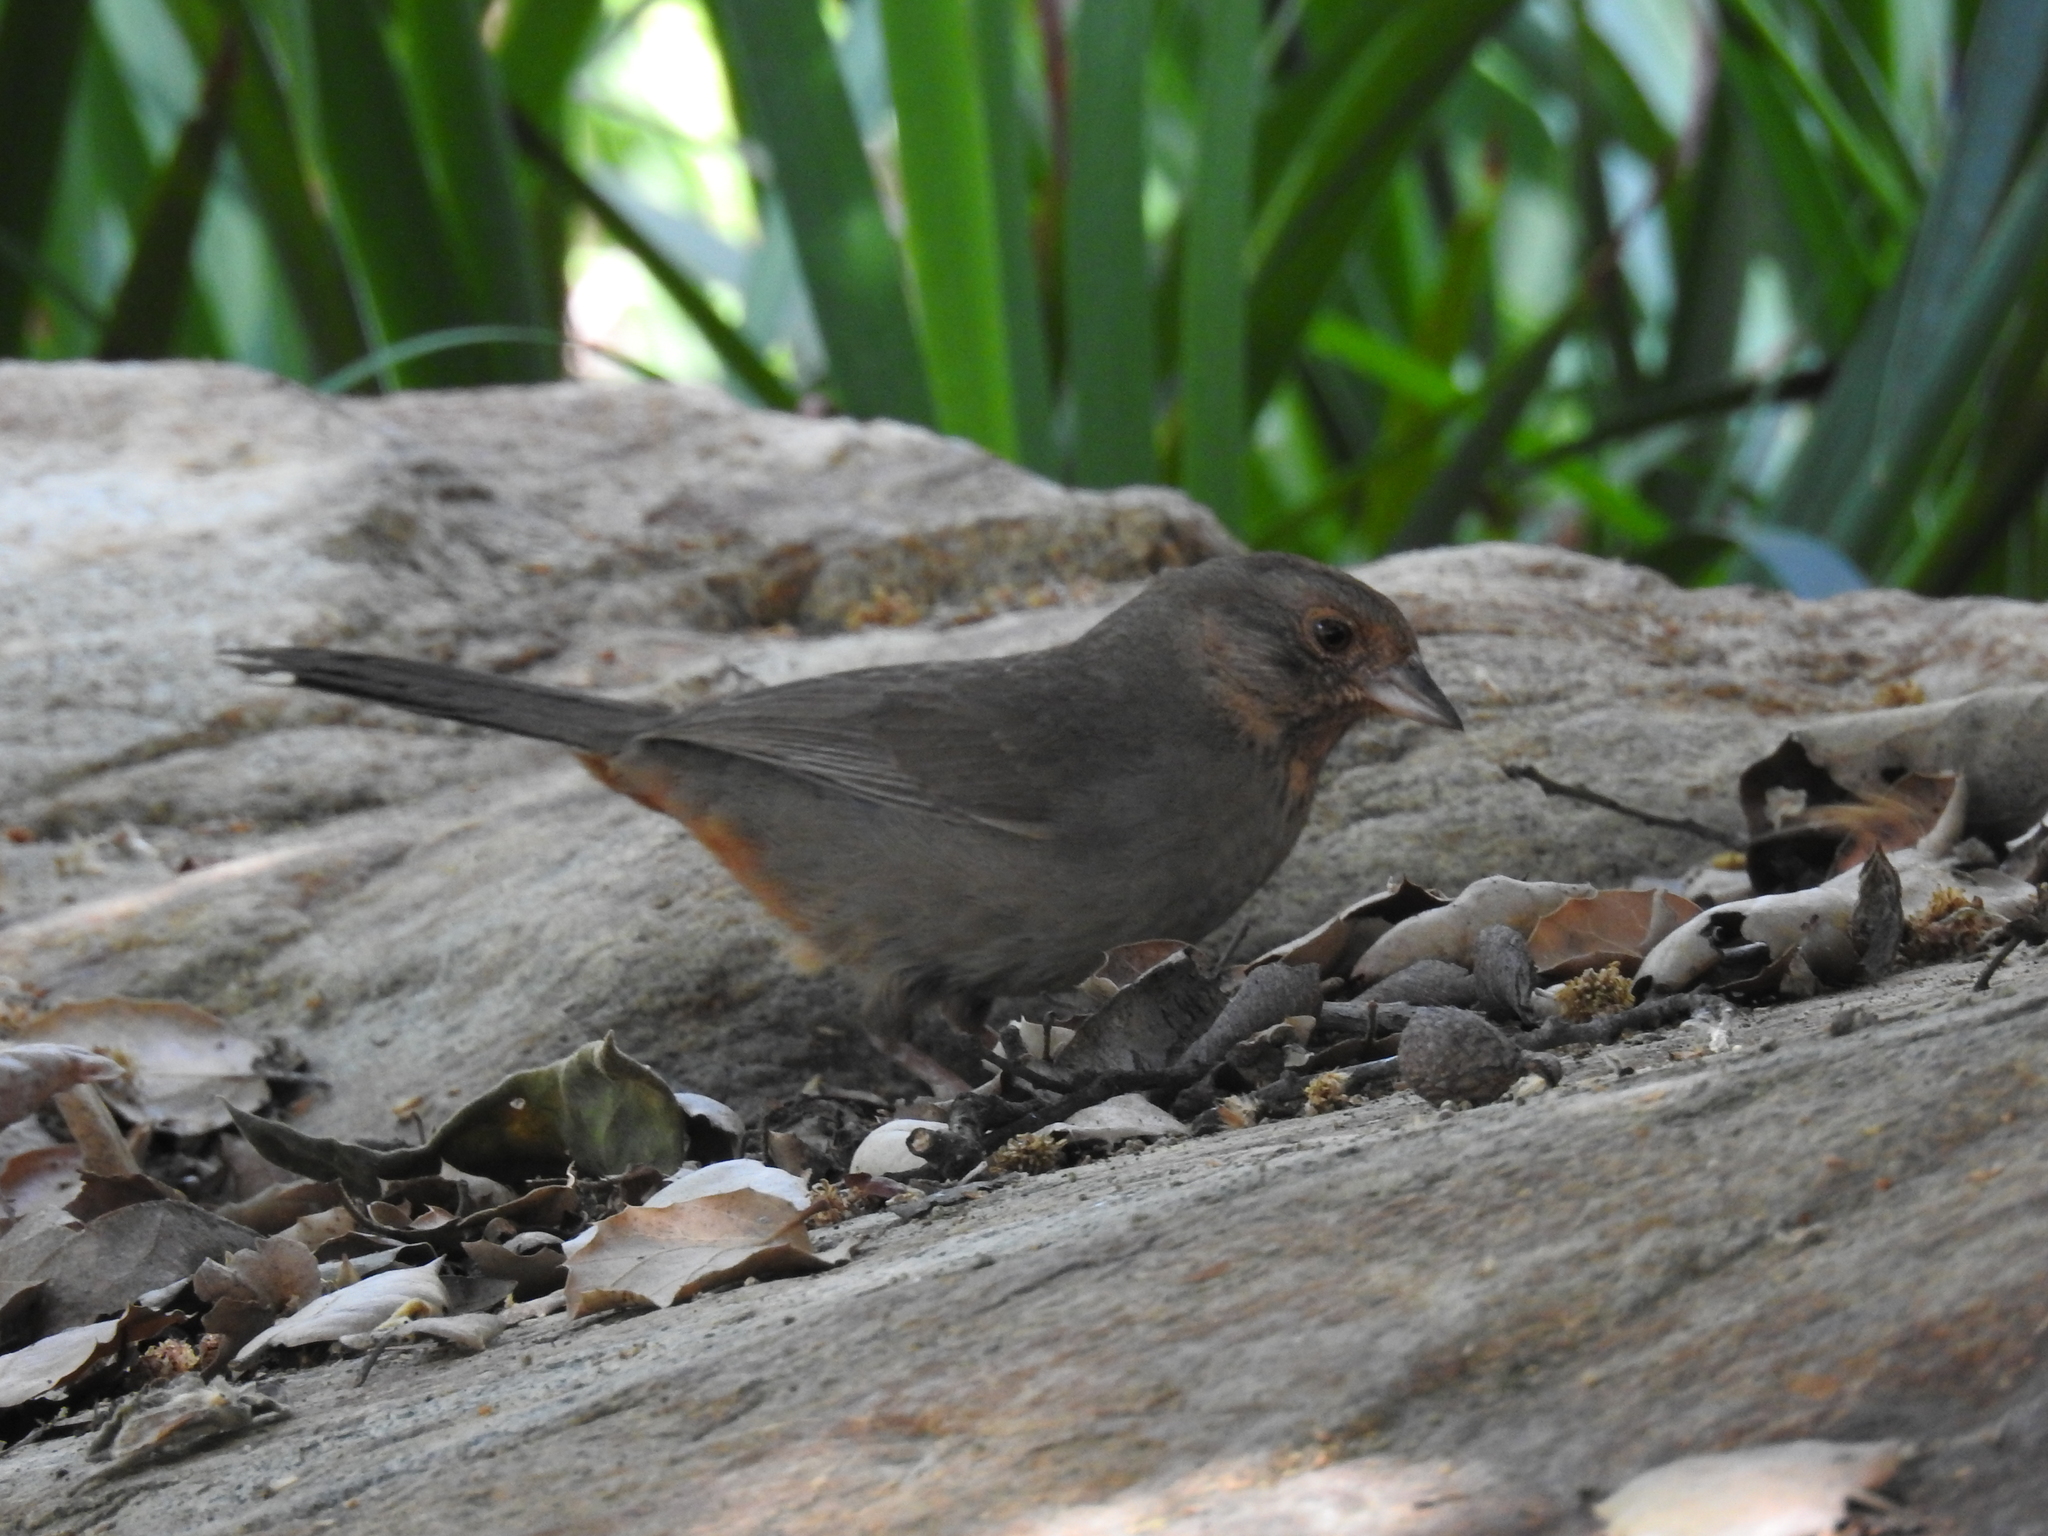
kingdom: Animalia
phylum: Chordata
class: Aves
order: Passeriformes
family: Passerellidae
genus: Melozone
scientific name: Melozone crissalis
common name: California towhee
